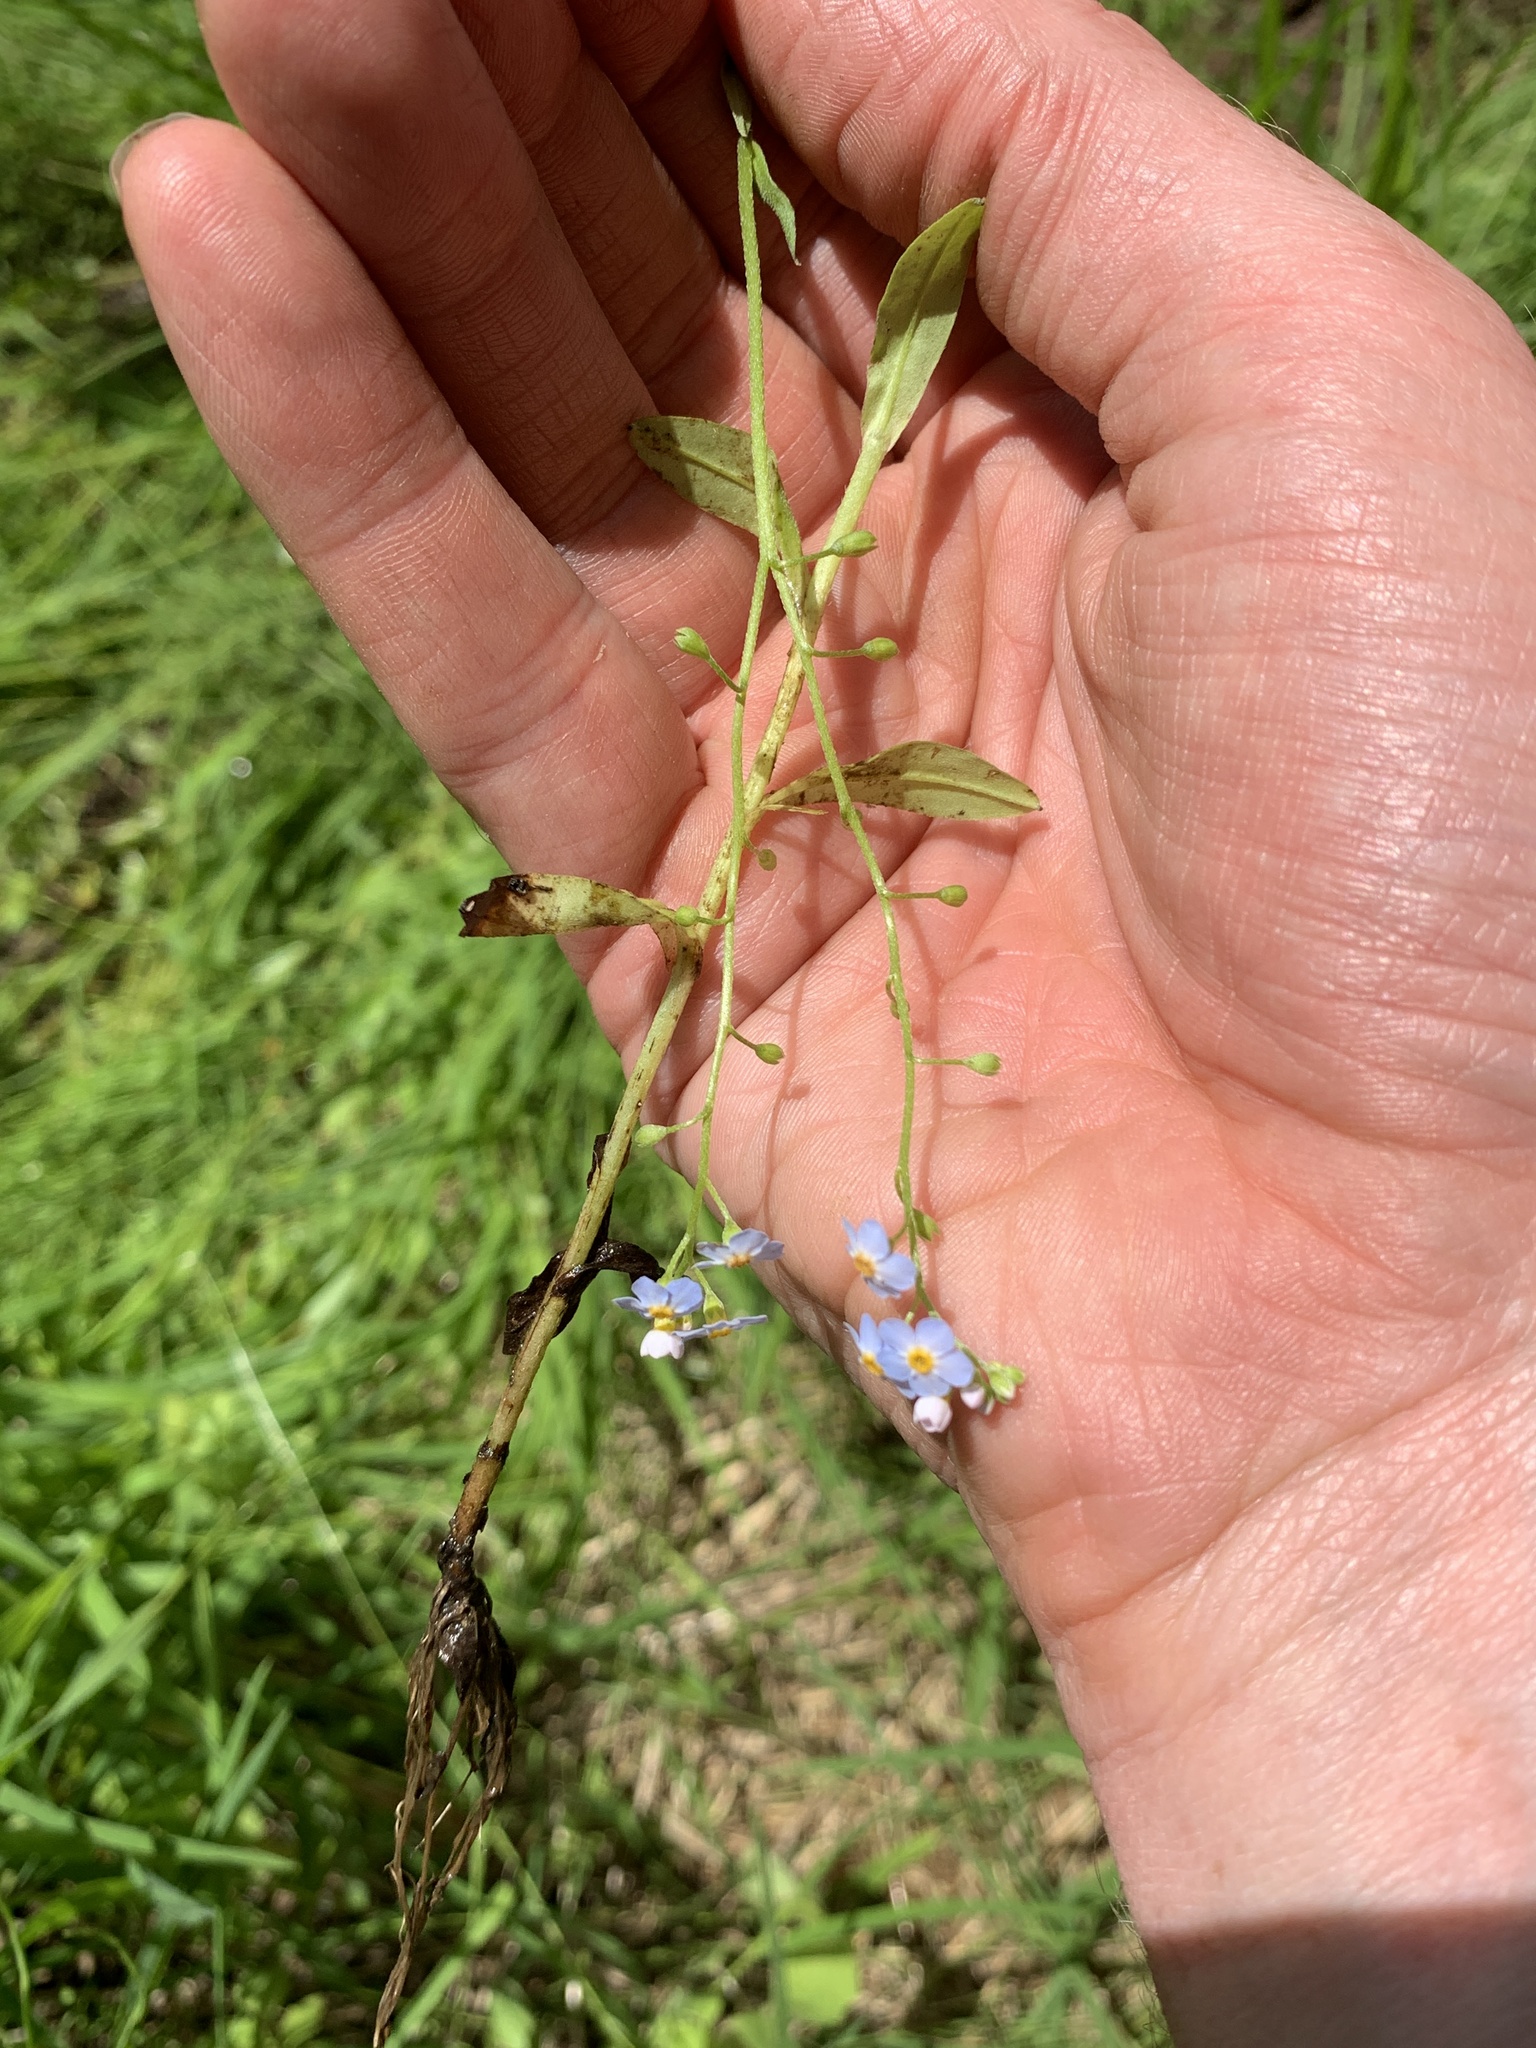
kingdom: Plantae
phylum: Tracheophyta
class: Magnoliopsida
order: Boraginales
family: Boraginaceae
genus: Myosotis
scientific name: Myosotis scorpioides
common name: Water forget-me-not
